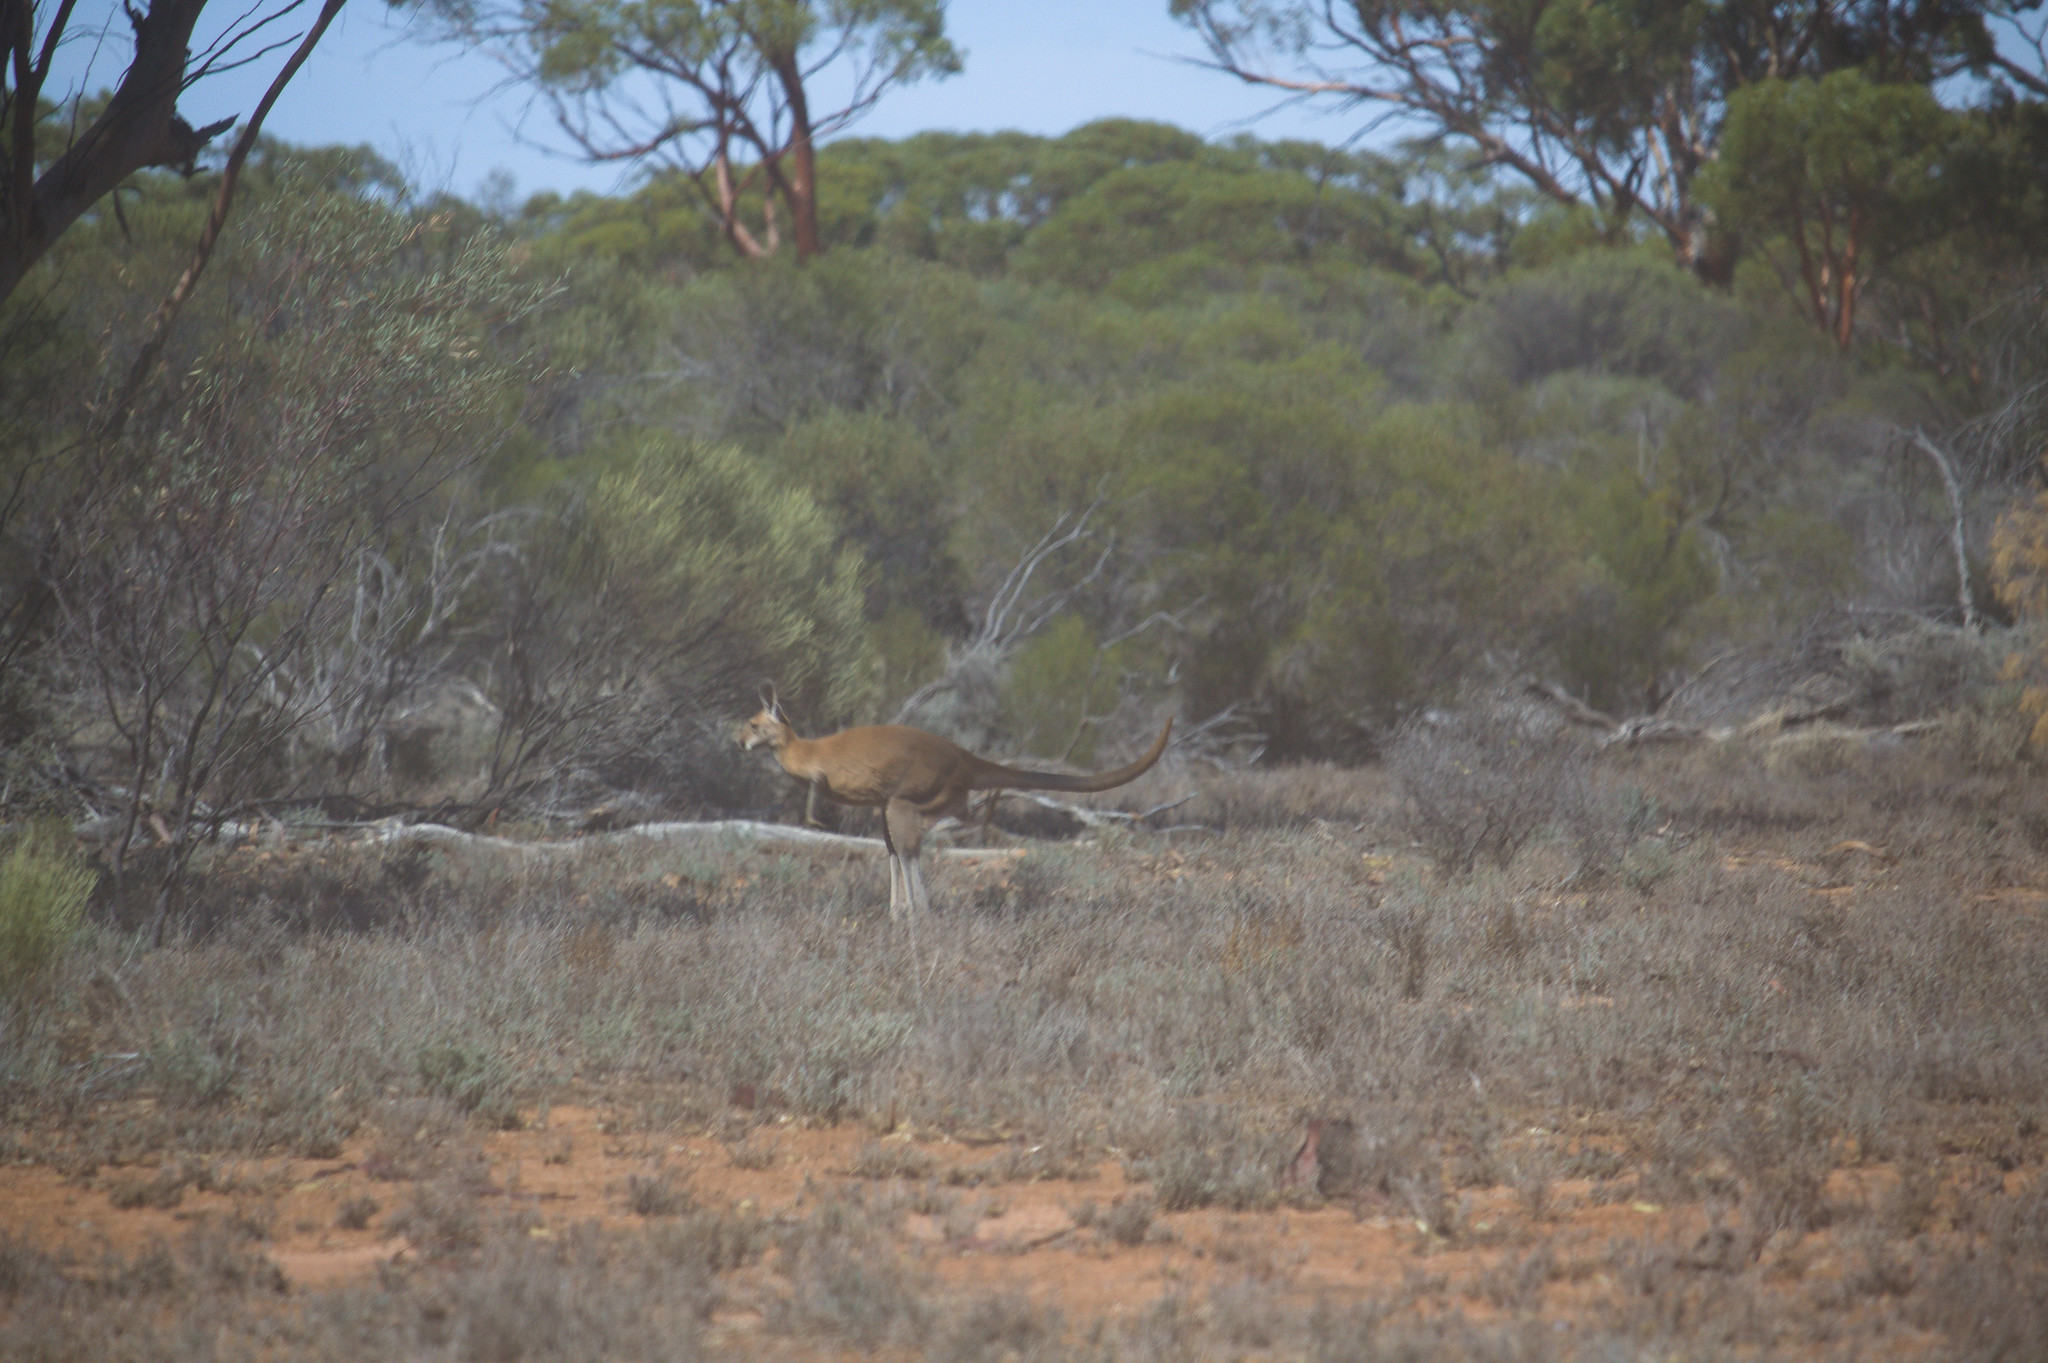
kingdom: Animalia
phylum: Chordata
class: Mammalia
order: Diprotodontia
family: Macropodidae
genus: Macropus
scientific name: Macropus rufus
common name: Red kangaroo
